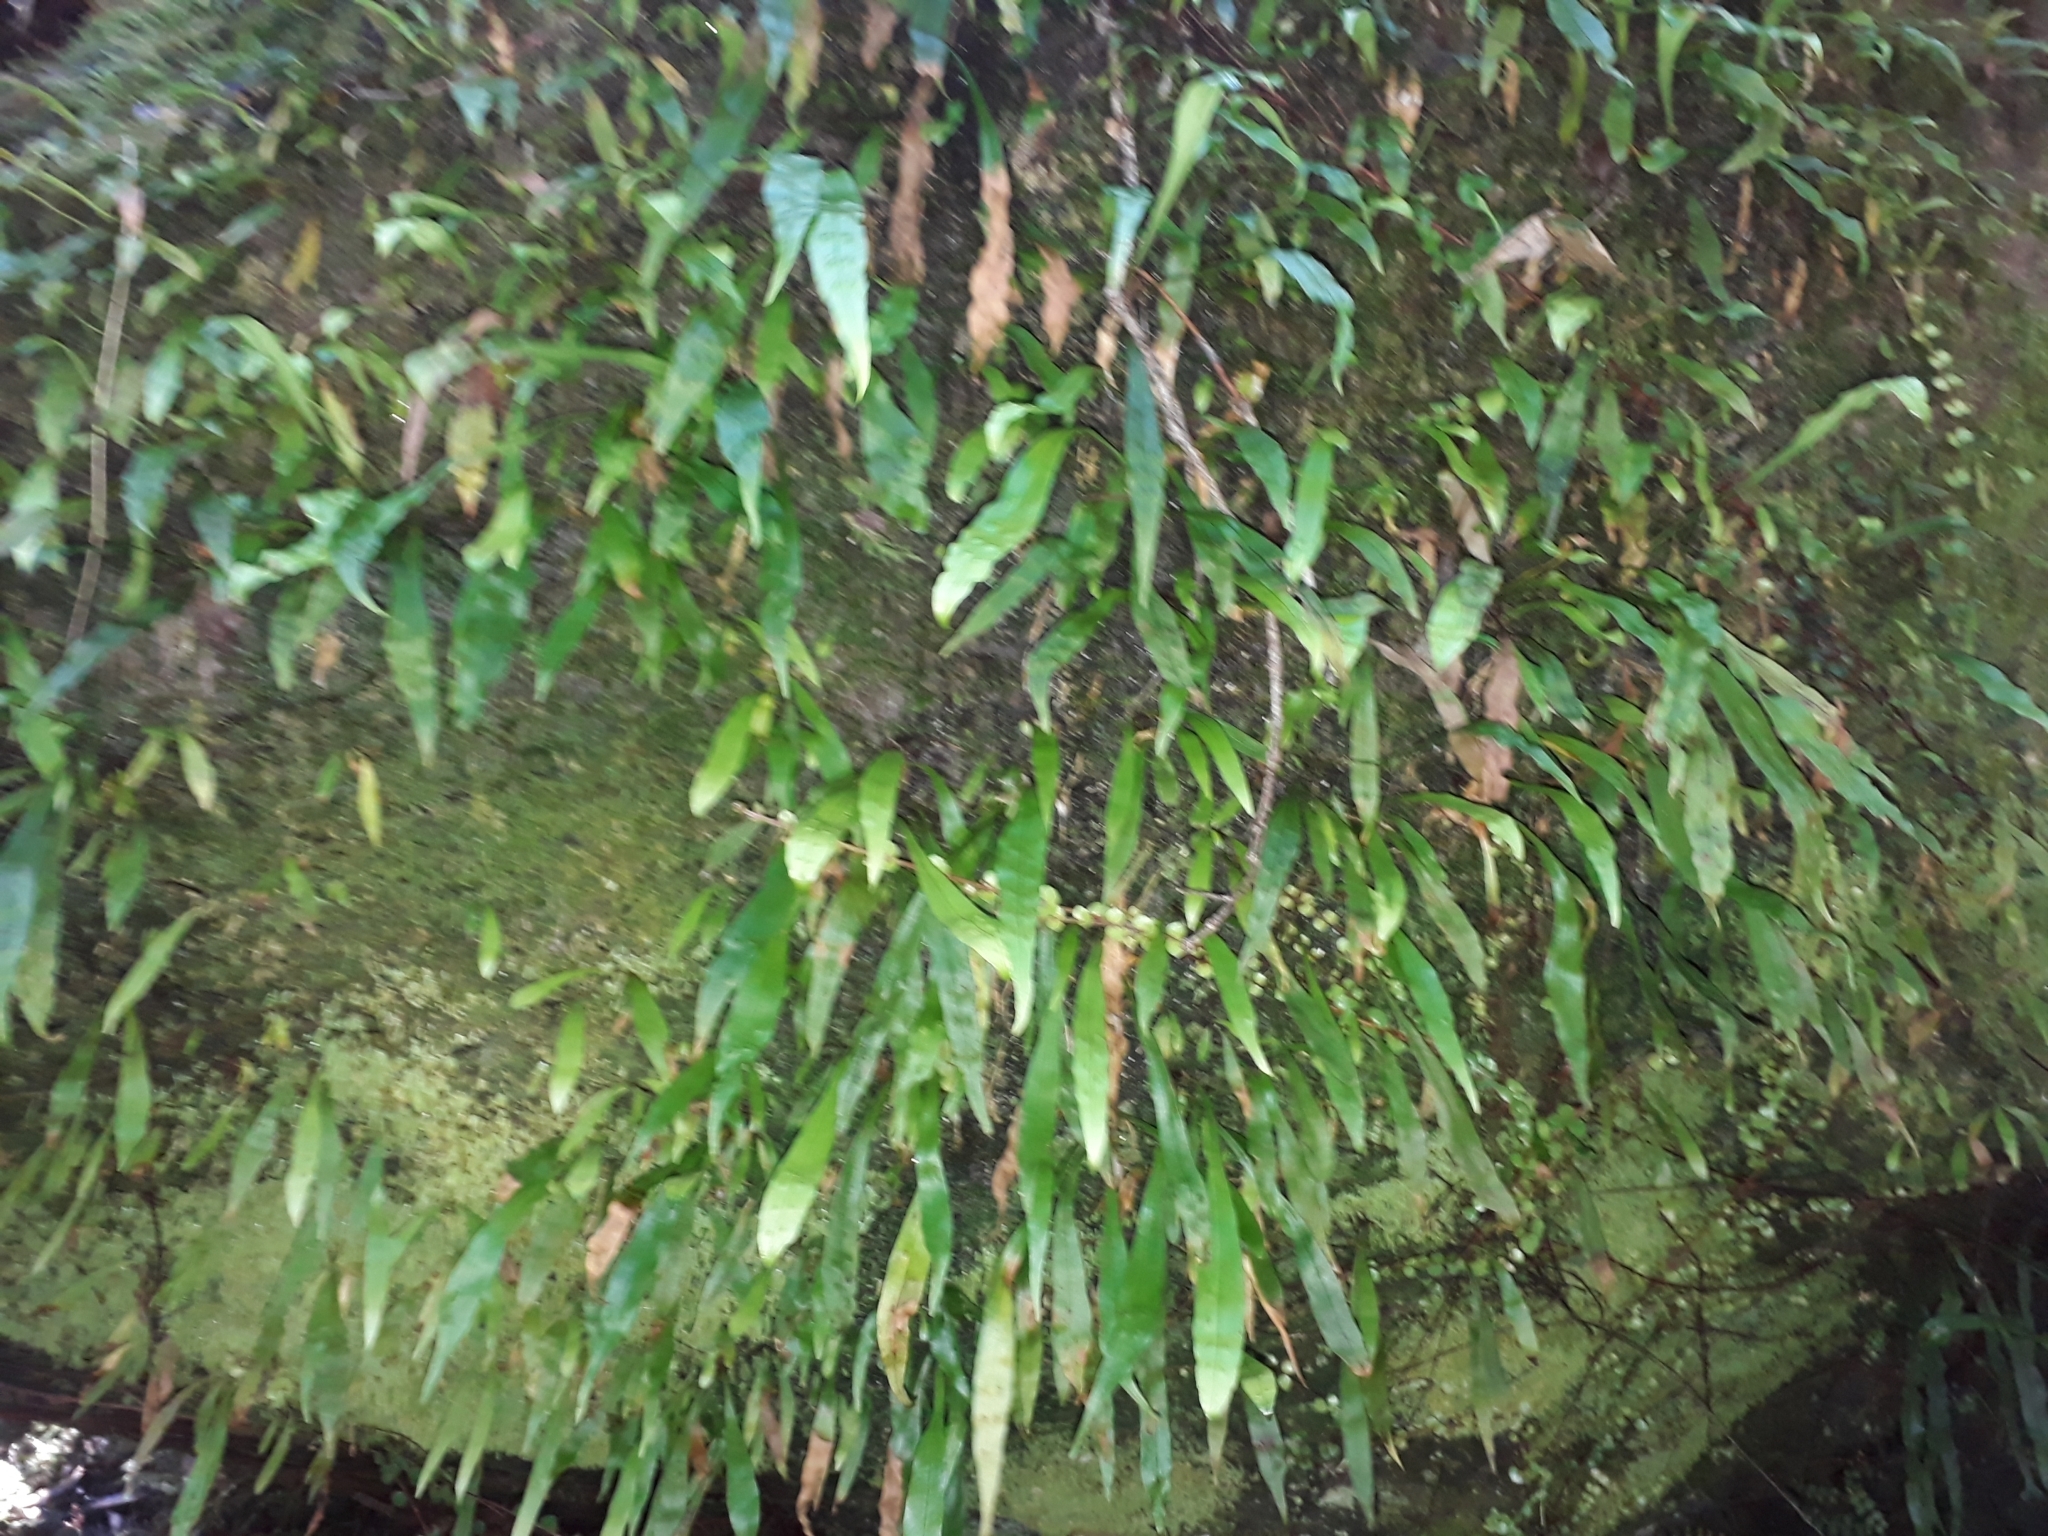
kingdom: Plantae
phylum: Tracheophyta
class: Polypodiopsida
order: Polypodiales
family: Polypodiaceae
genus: Loxogramme
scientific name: Loxogramme dictyopteris
